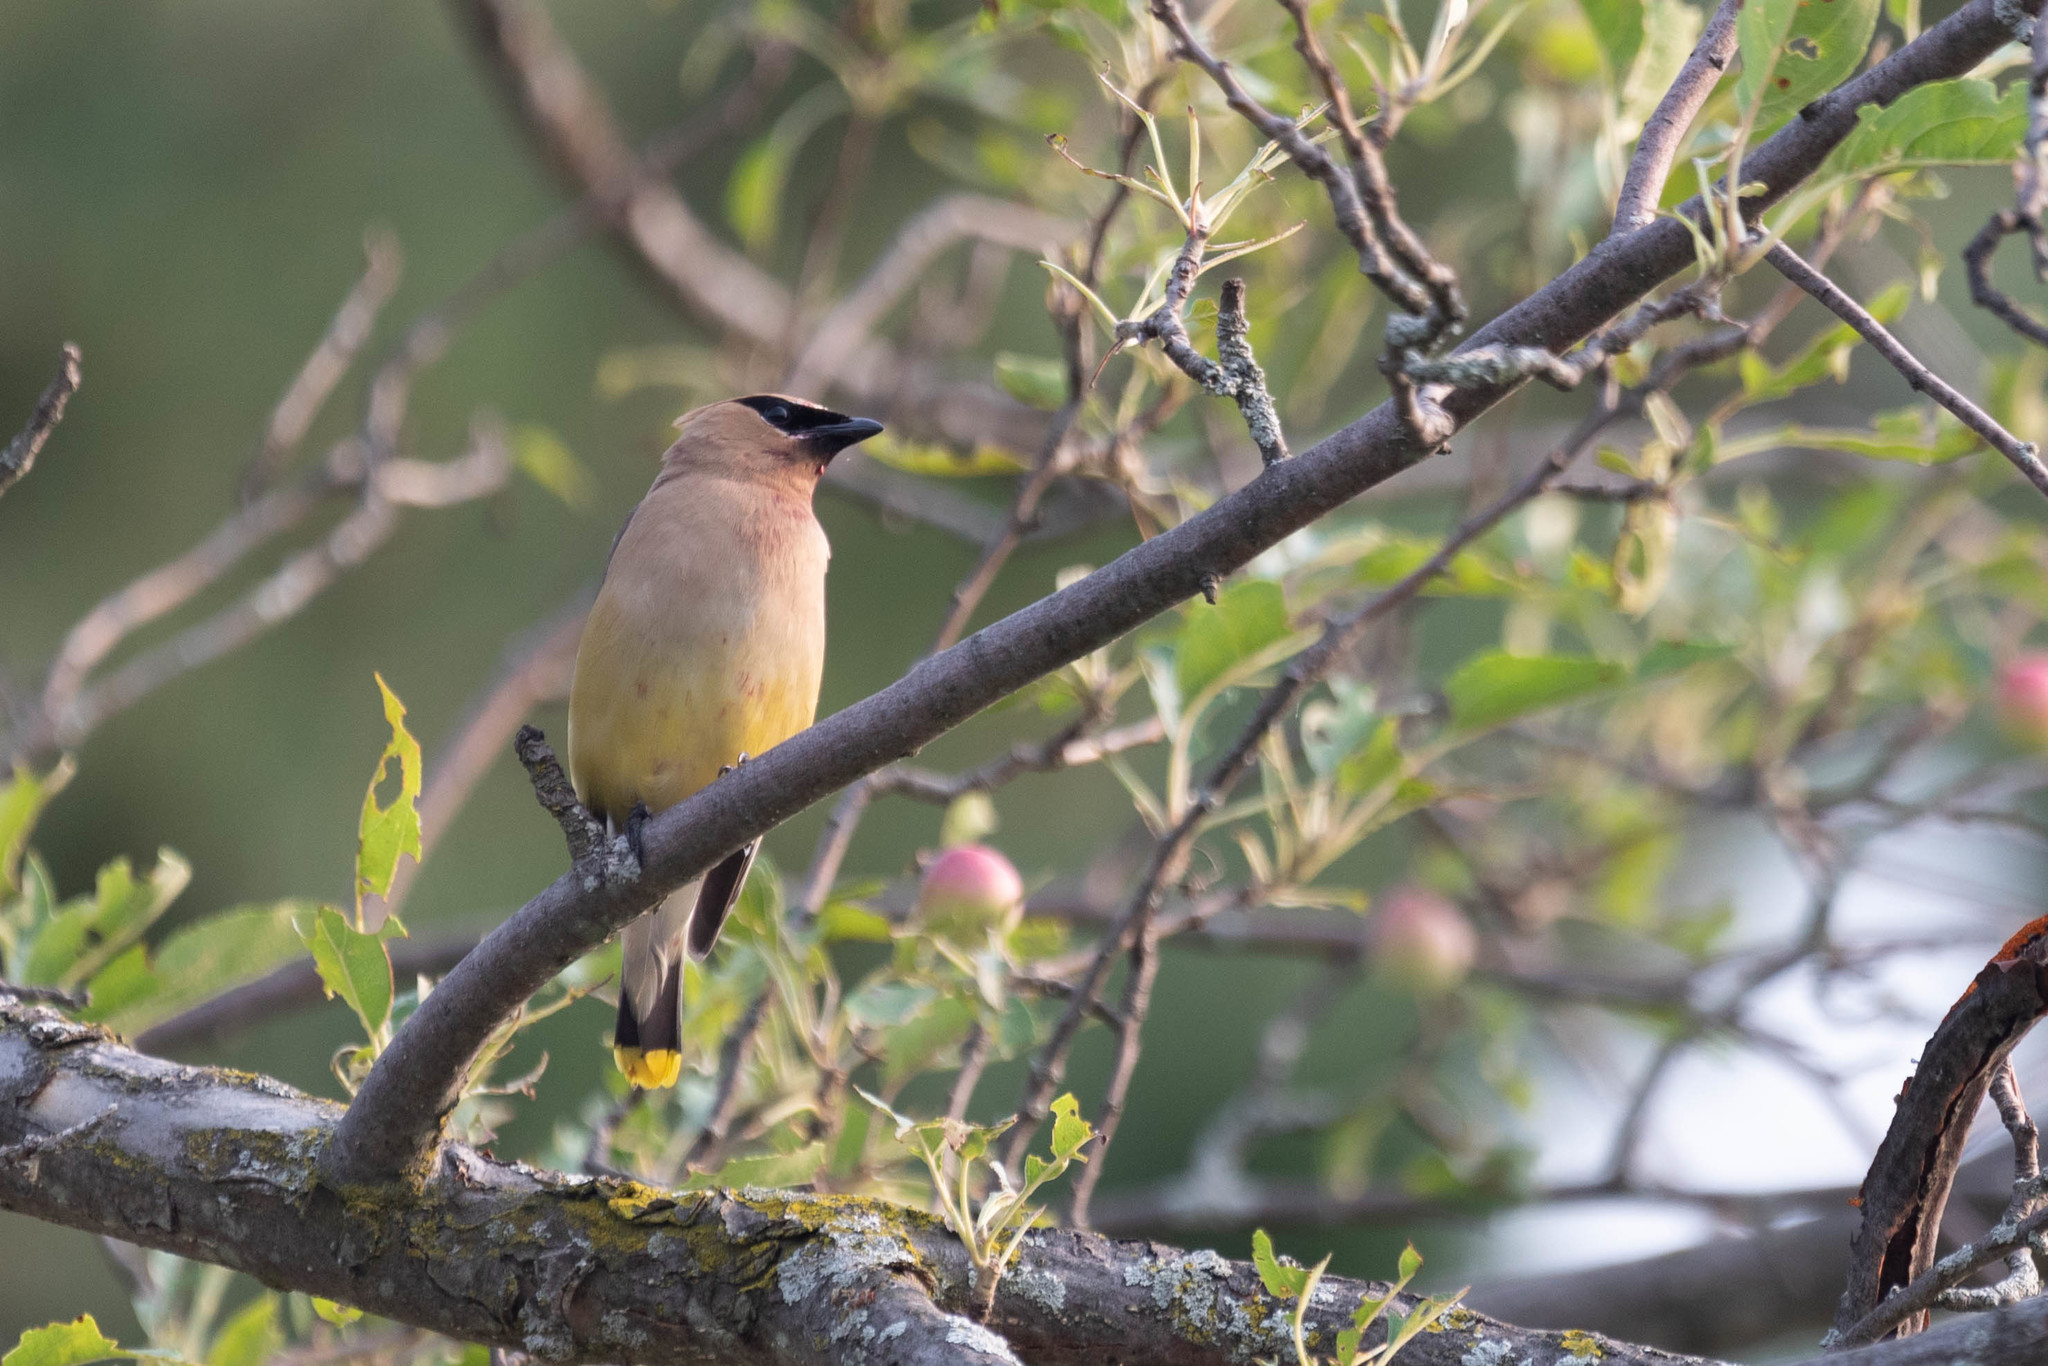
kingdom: Animalia
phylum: Chordata
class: Aves
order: Passeriformes
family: Bombycillidae
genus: Bombycilla
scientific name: Bombycilla cedrorum
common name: Cedar waxwing
